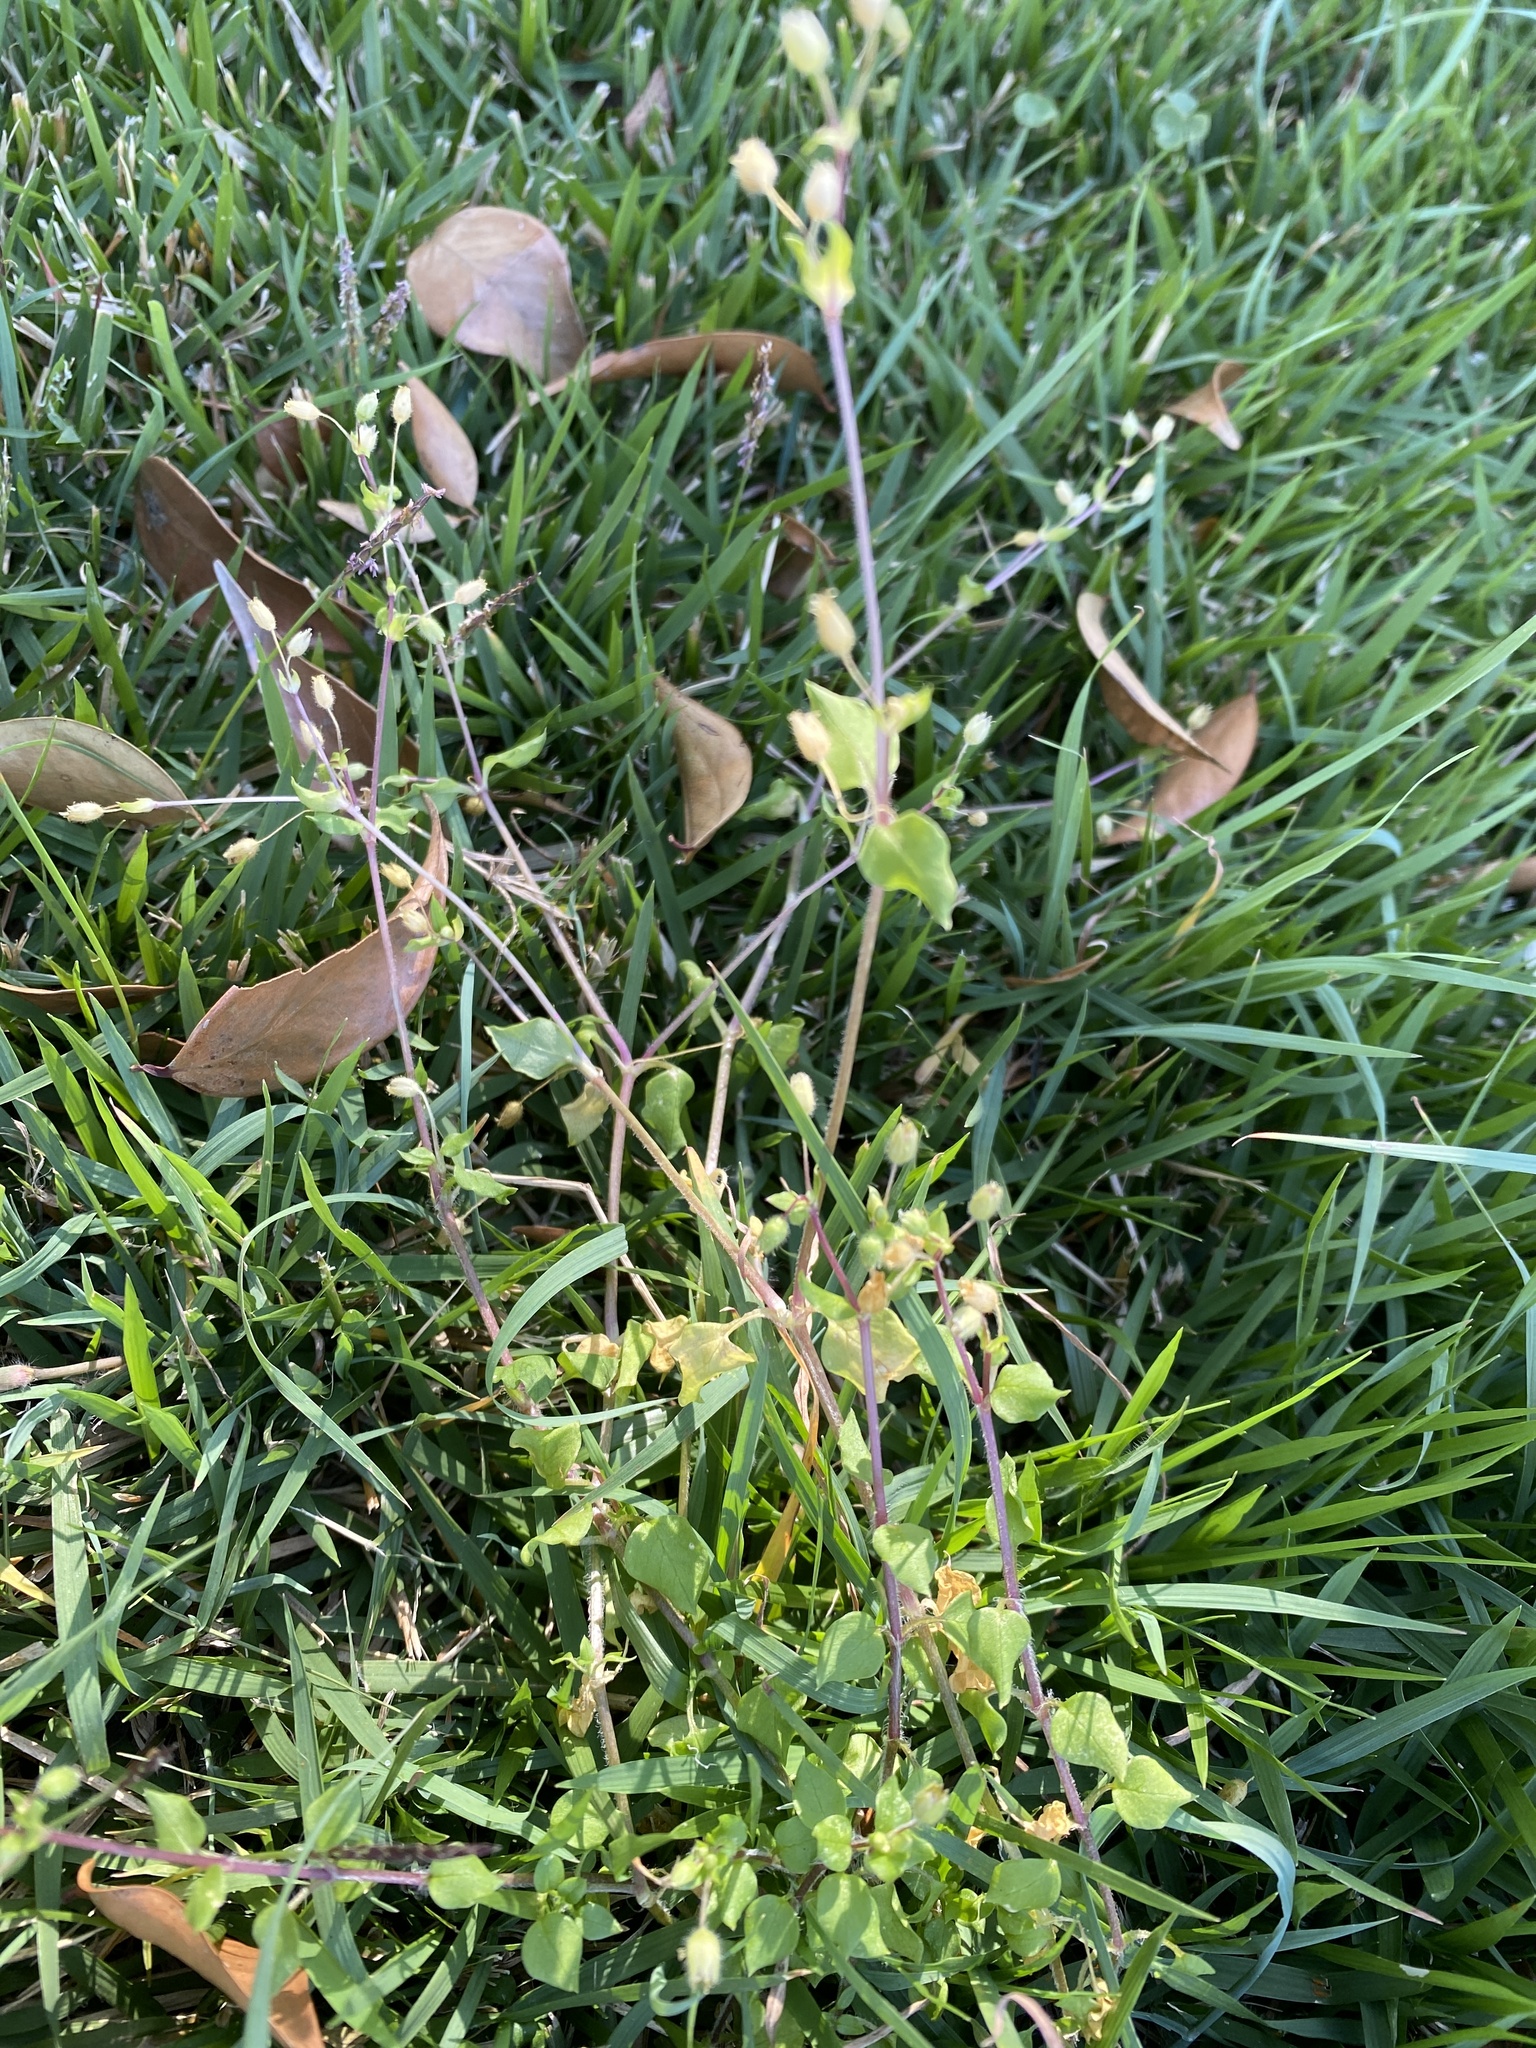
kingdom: Plantae
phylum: Tracheophyta
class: Magnoliopsida
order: Caryophyllales
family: Caryophyllaceae
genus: Stellaria
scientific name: Stellaria media
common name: Common chickweed
